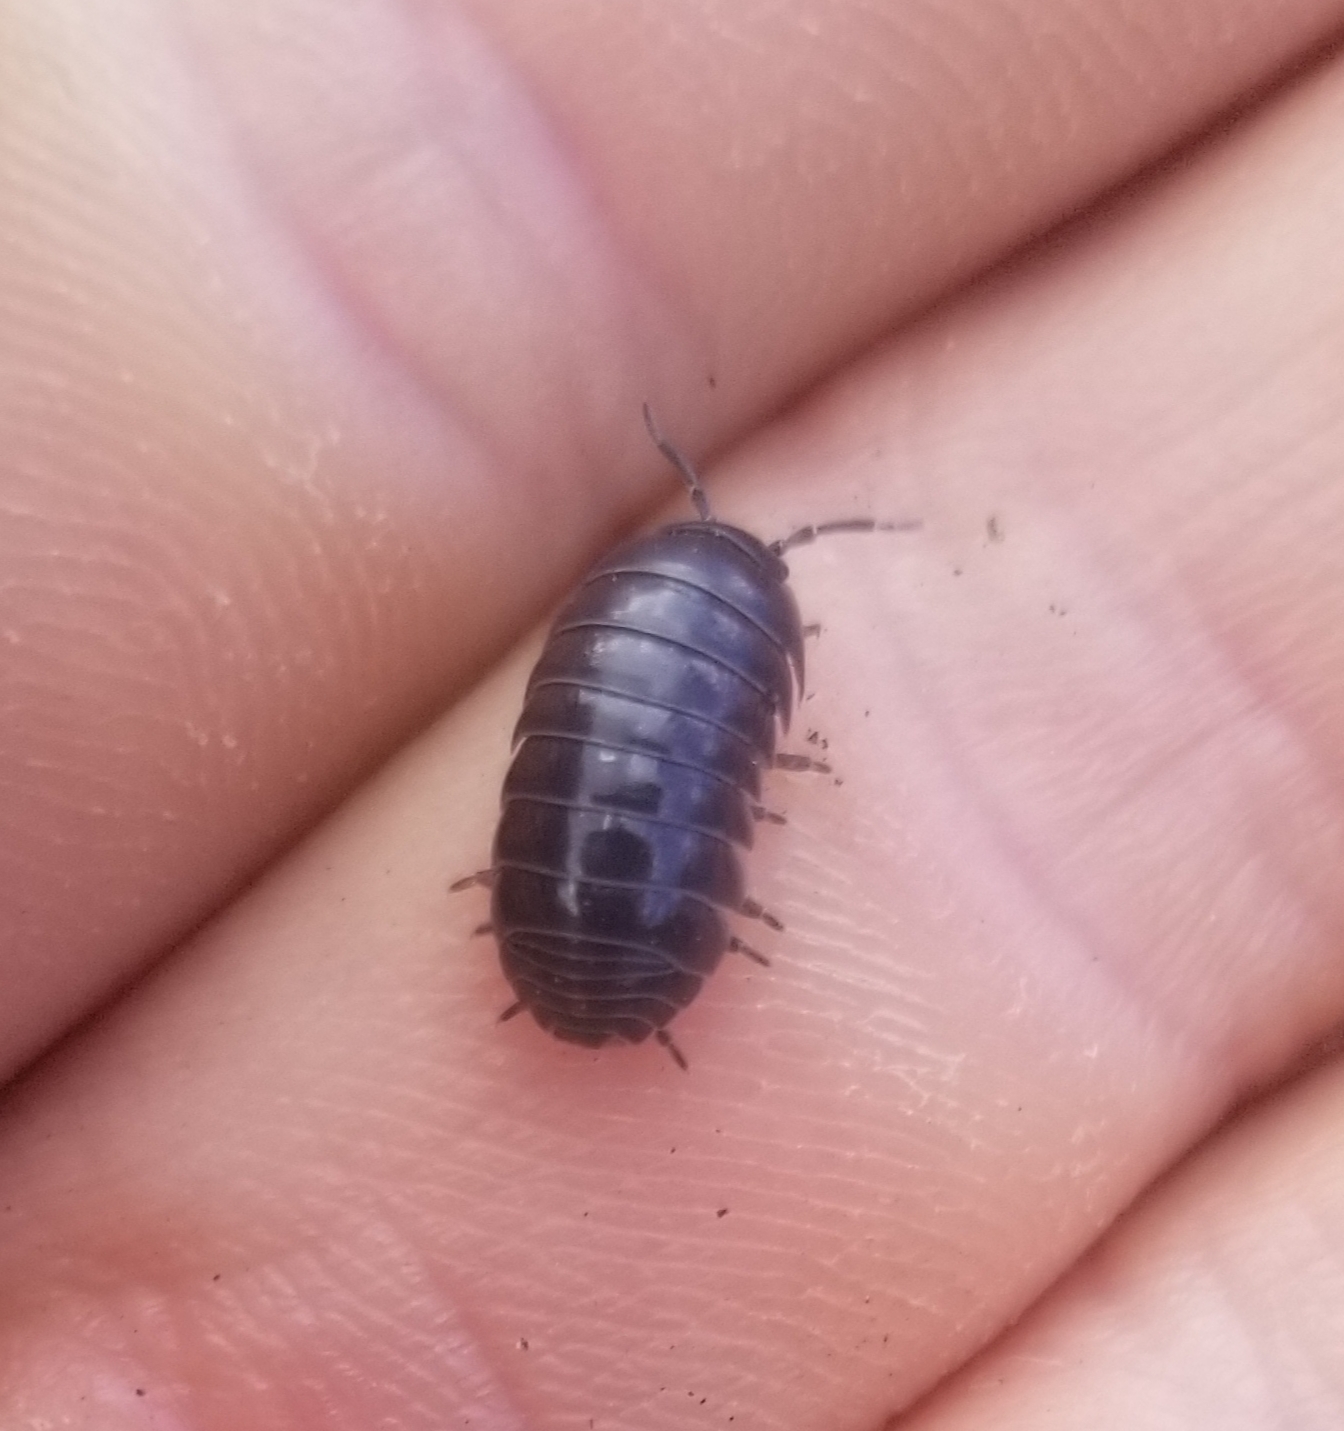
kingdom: Animalia
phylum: Arthropoda
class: Malacostraca
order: Isopoda
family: Armadillidiidae
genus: Armadillidium
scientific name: Armadillidium vulgare
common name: Common pill woodlouse
